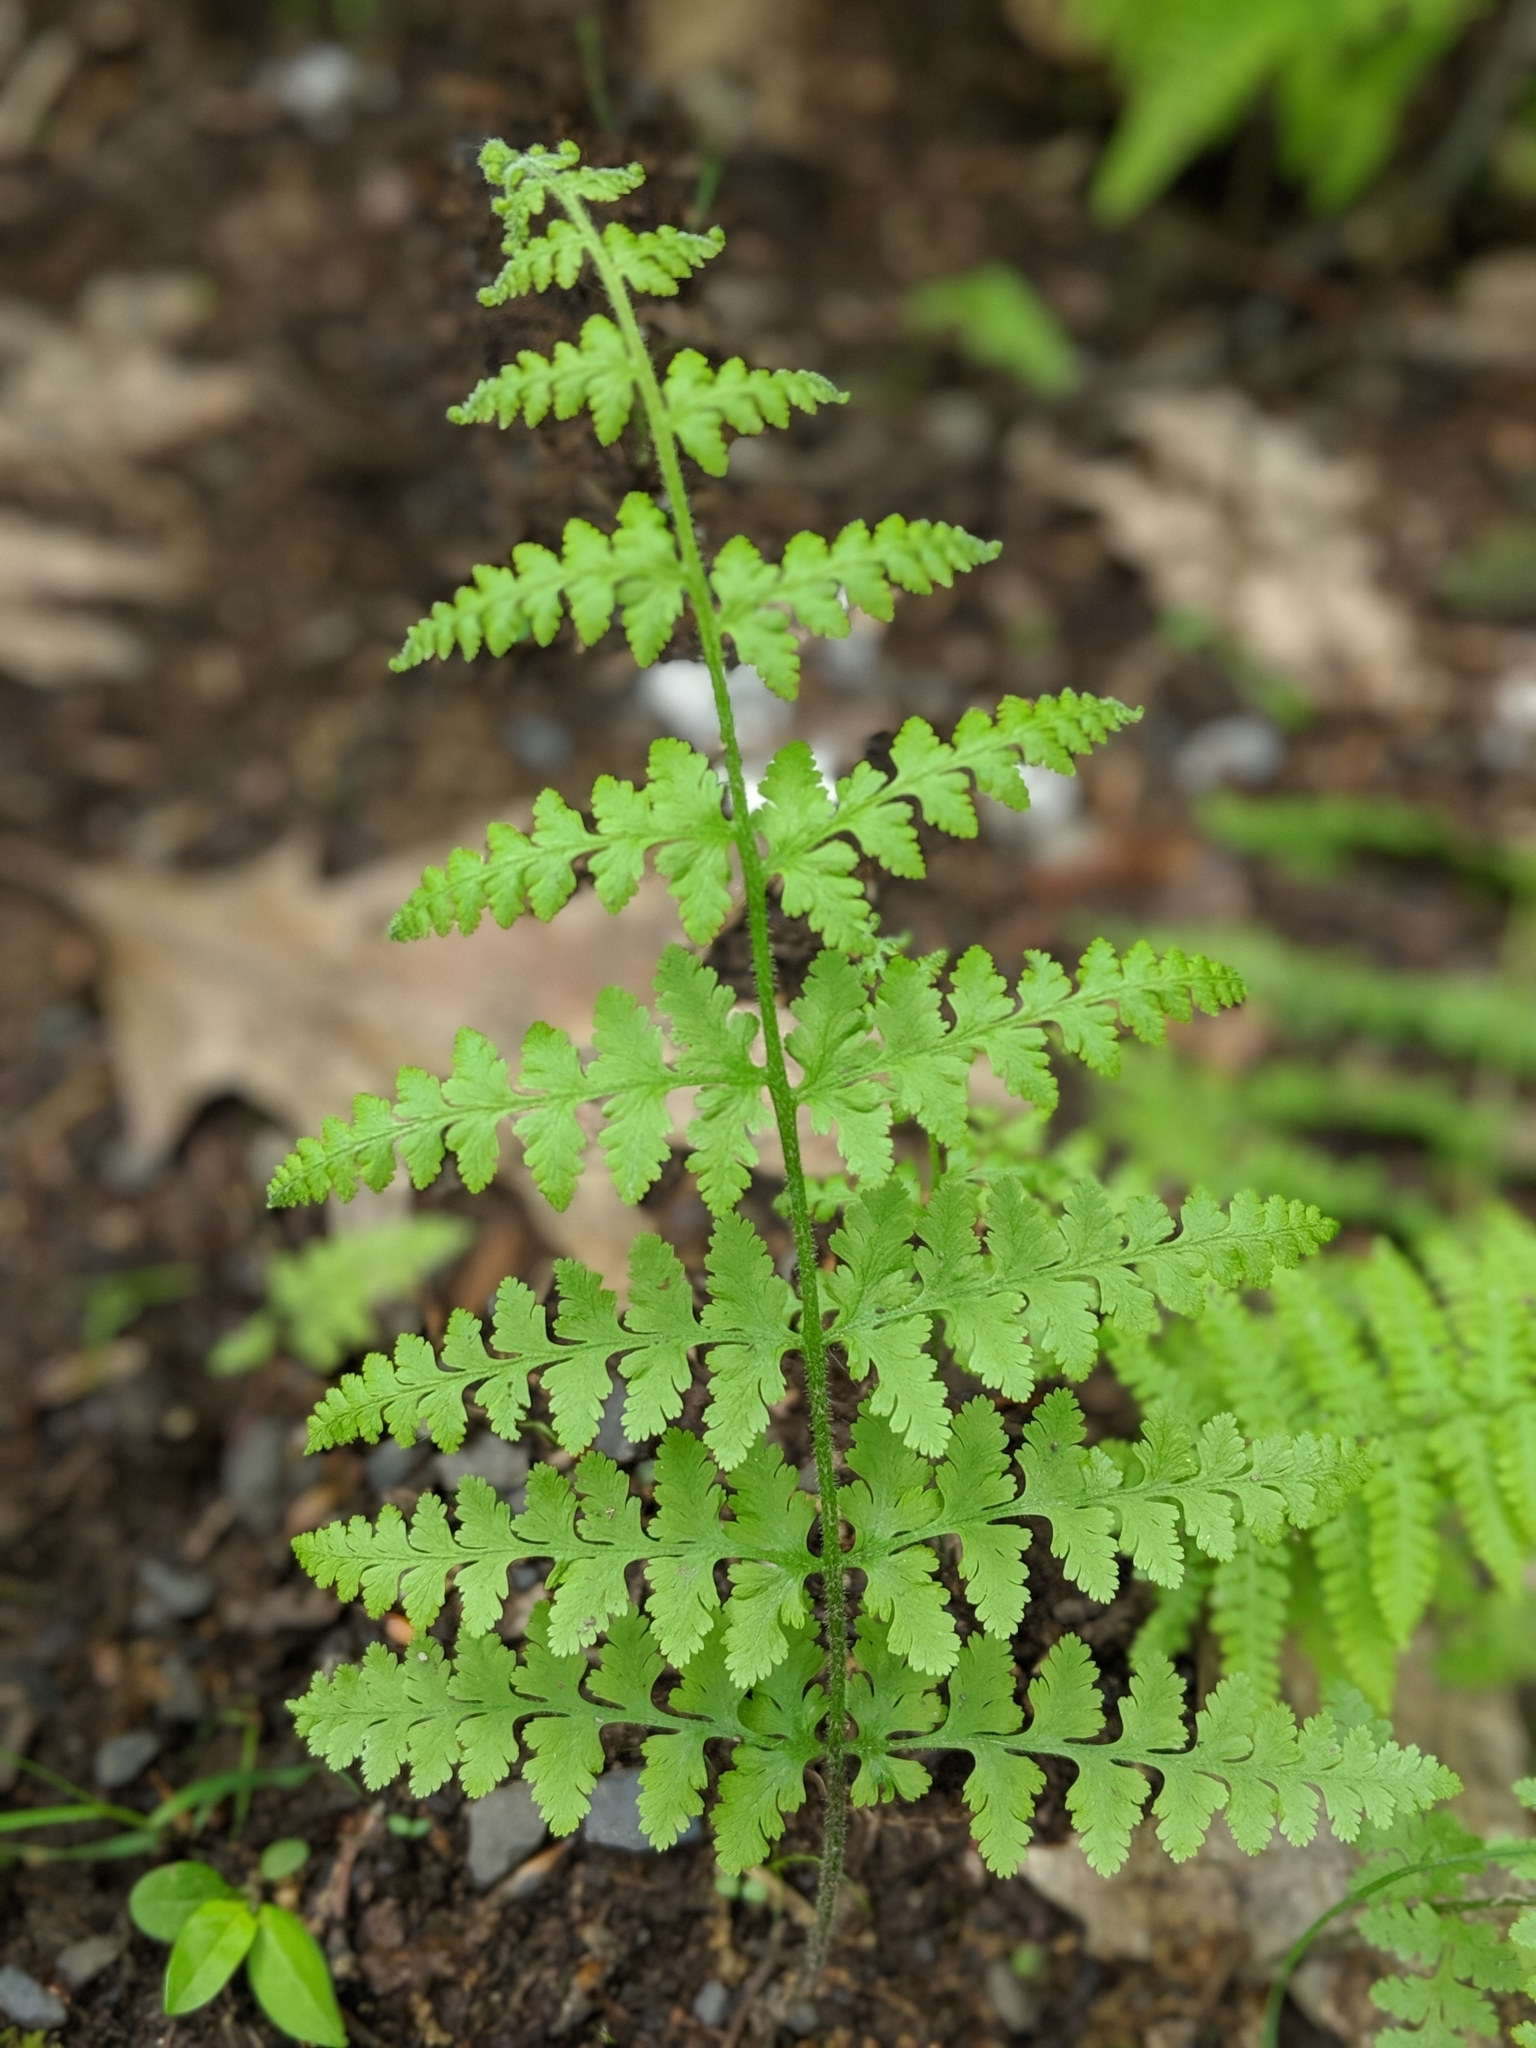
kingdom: Plantae
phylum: Tracheophyta
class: Polypodiopsida
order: Polypodiales
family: Dennstaedtiaceae
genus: Sitobolium
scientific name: Sitobolium punctilobum
